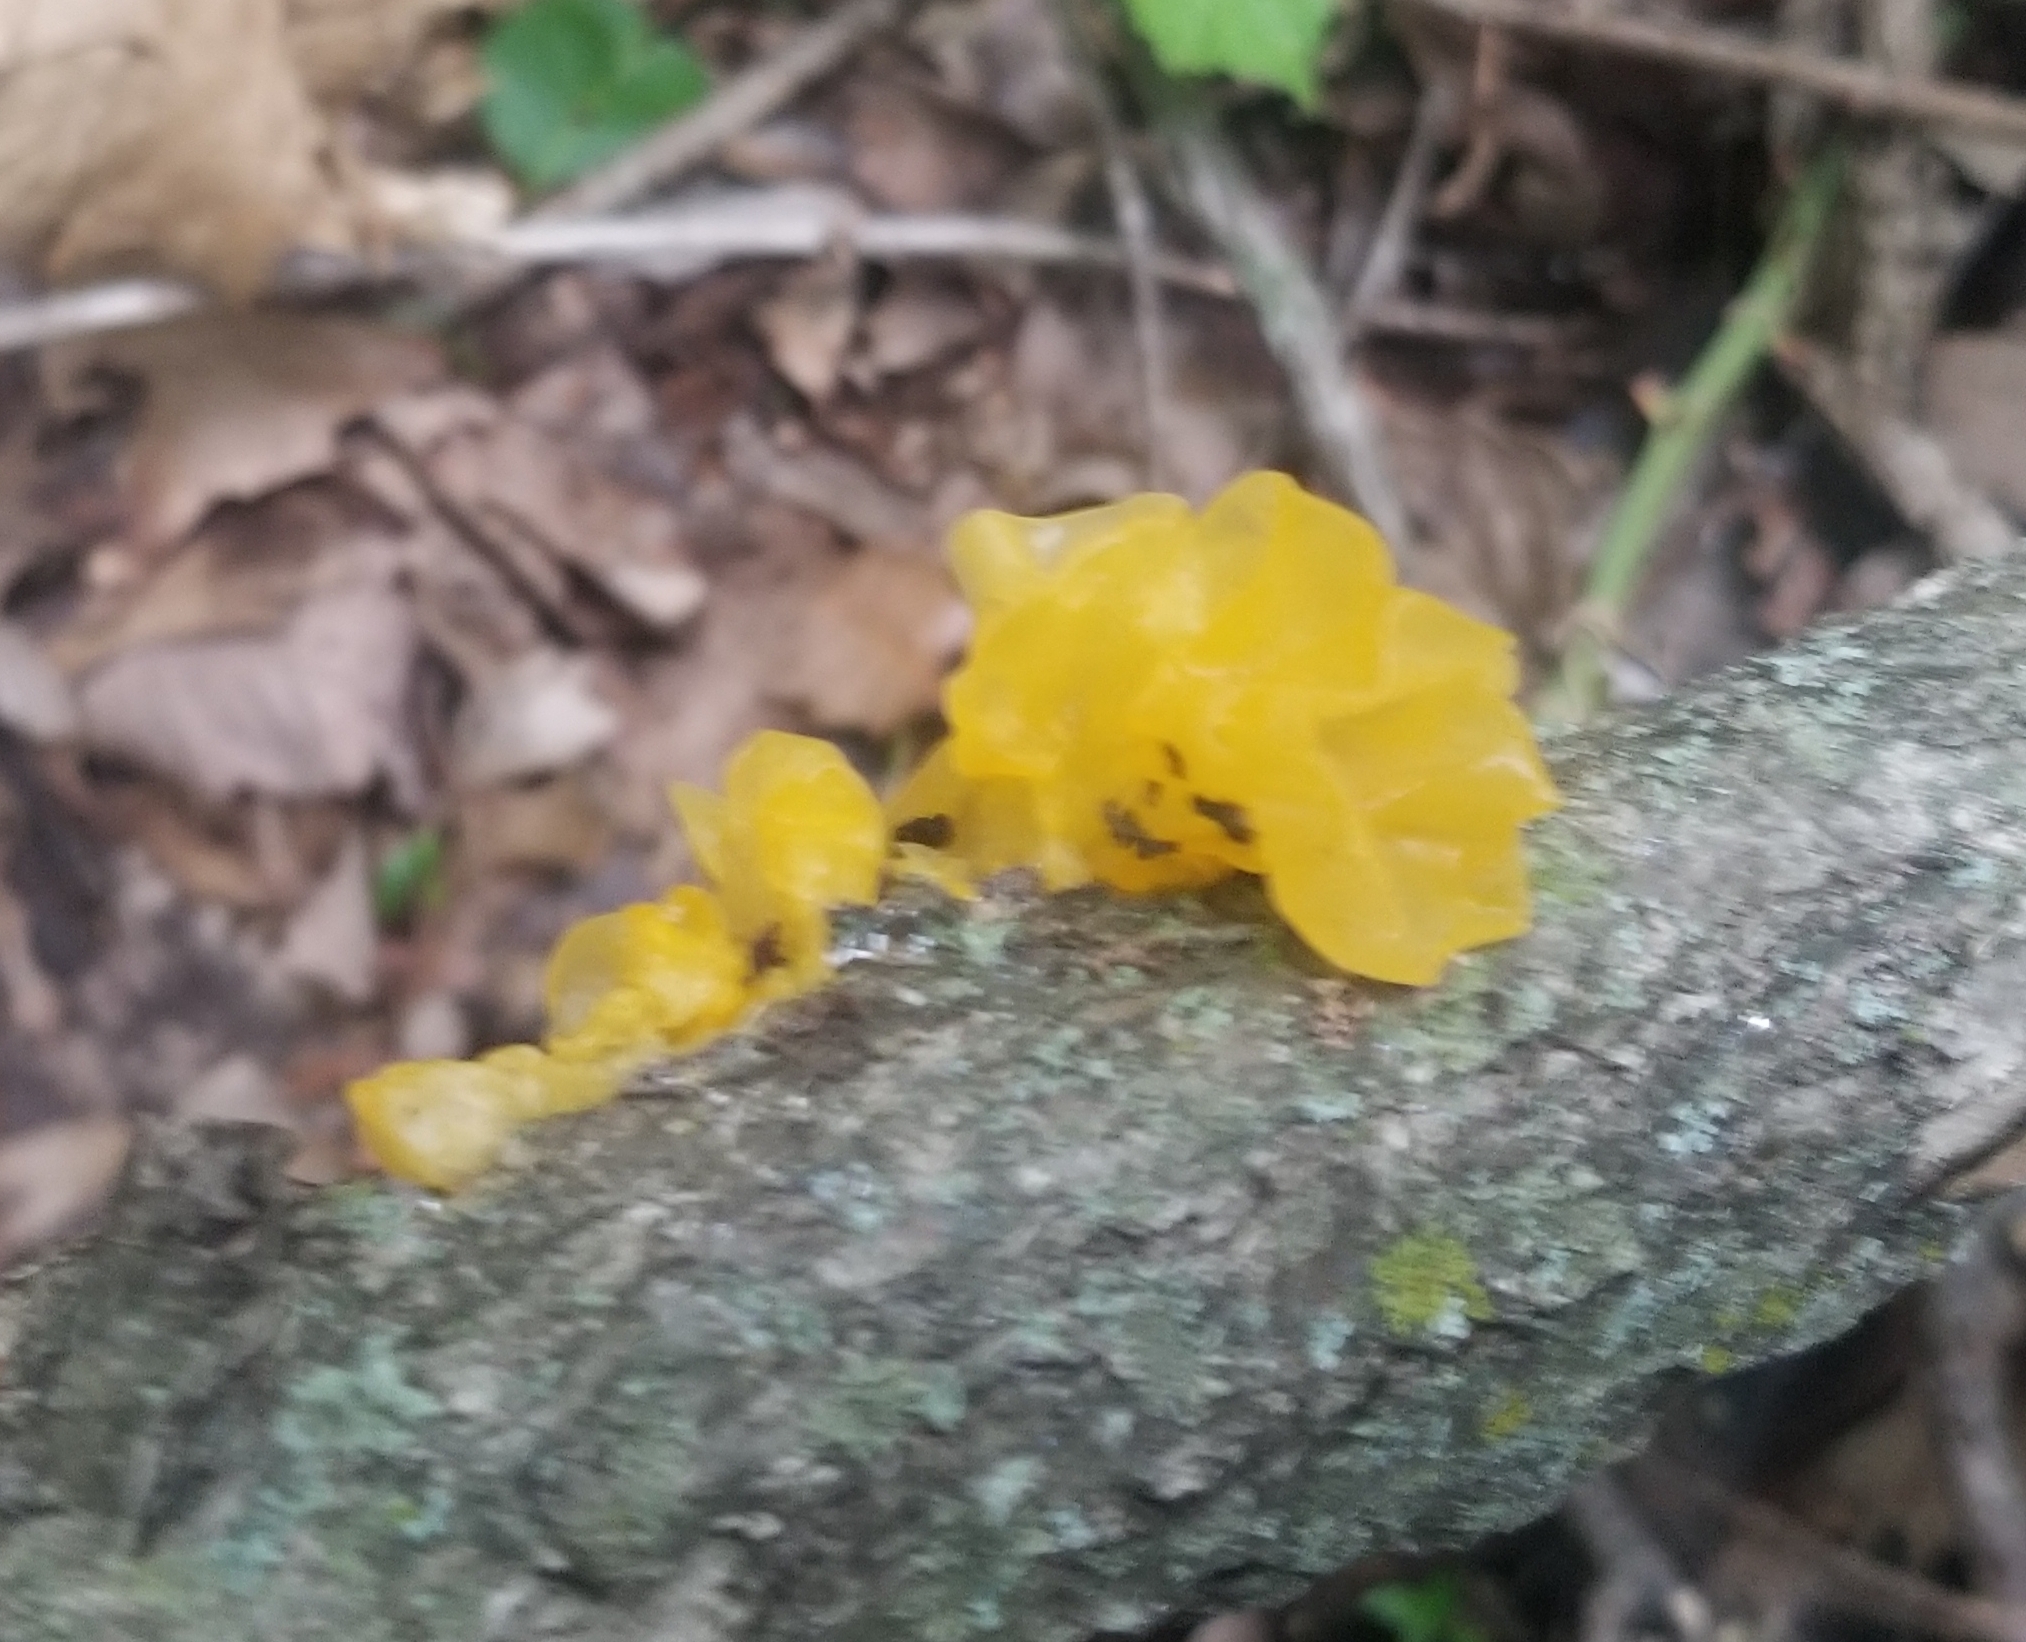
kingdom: Fungi
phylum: Basidiomycota
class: Tremellomycetes
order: Tremellales
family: Tremellaceae
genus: Tremella
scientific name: Tremella mesenterica
